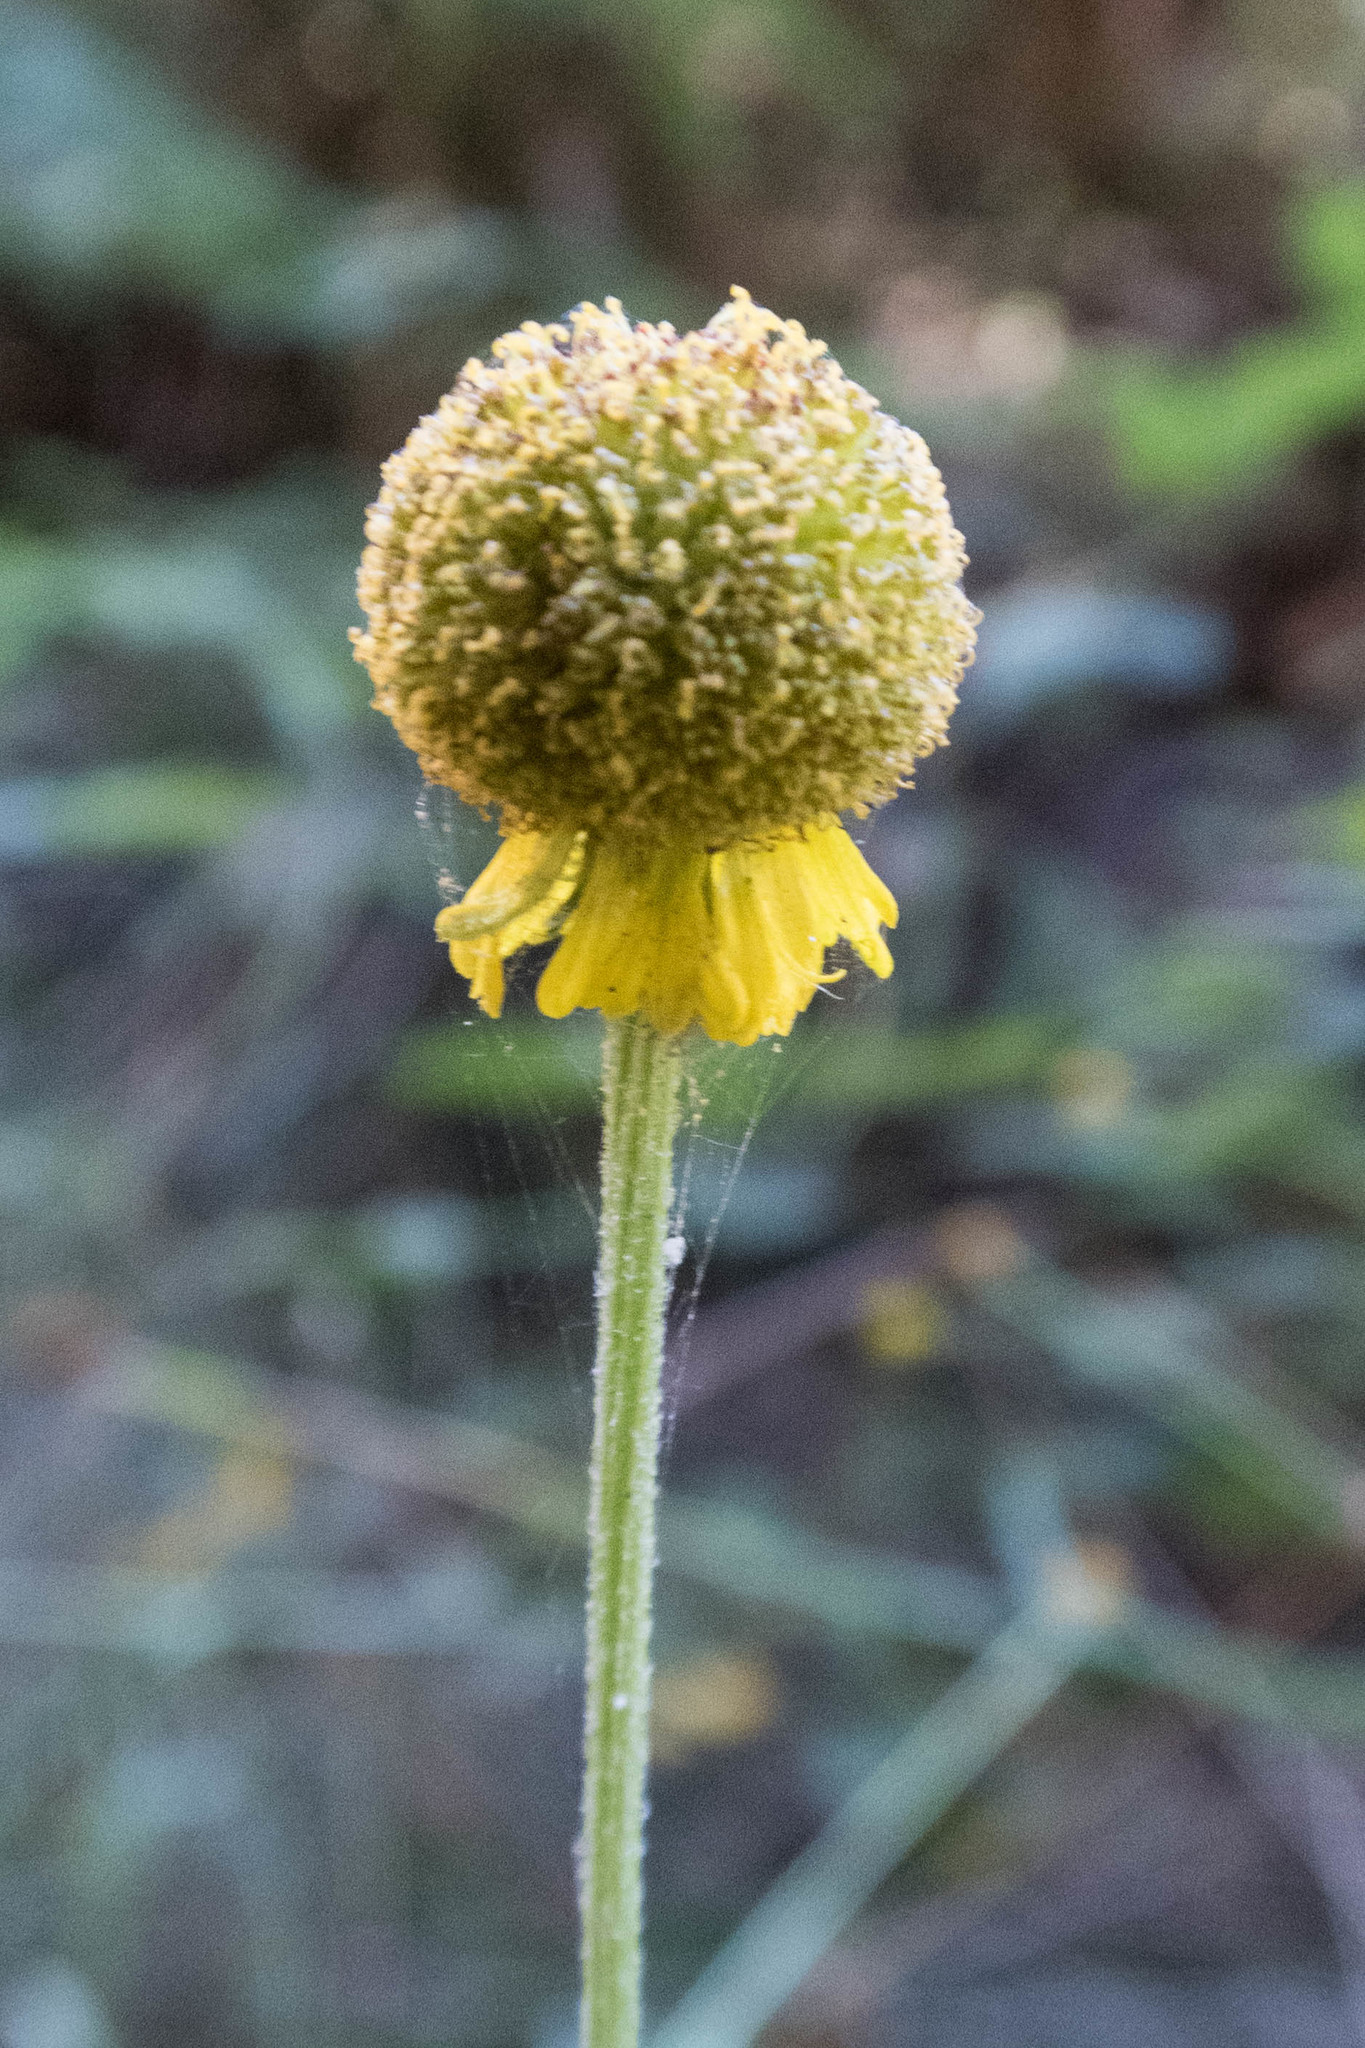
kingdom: Plantae
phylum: Tracheophyta
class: Magnoliopsida
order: Asterales
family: Asteraceae
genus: Helenium
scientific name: Helenium puberulum
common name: Sneezewort
